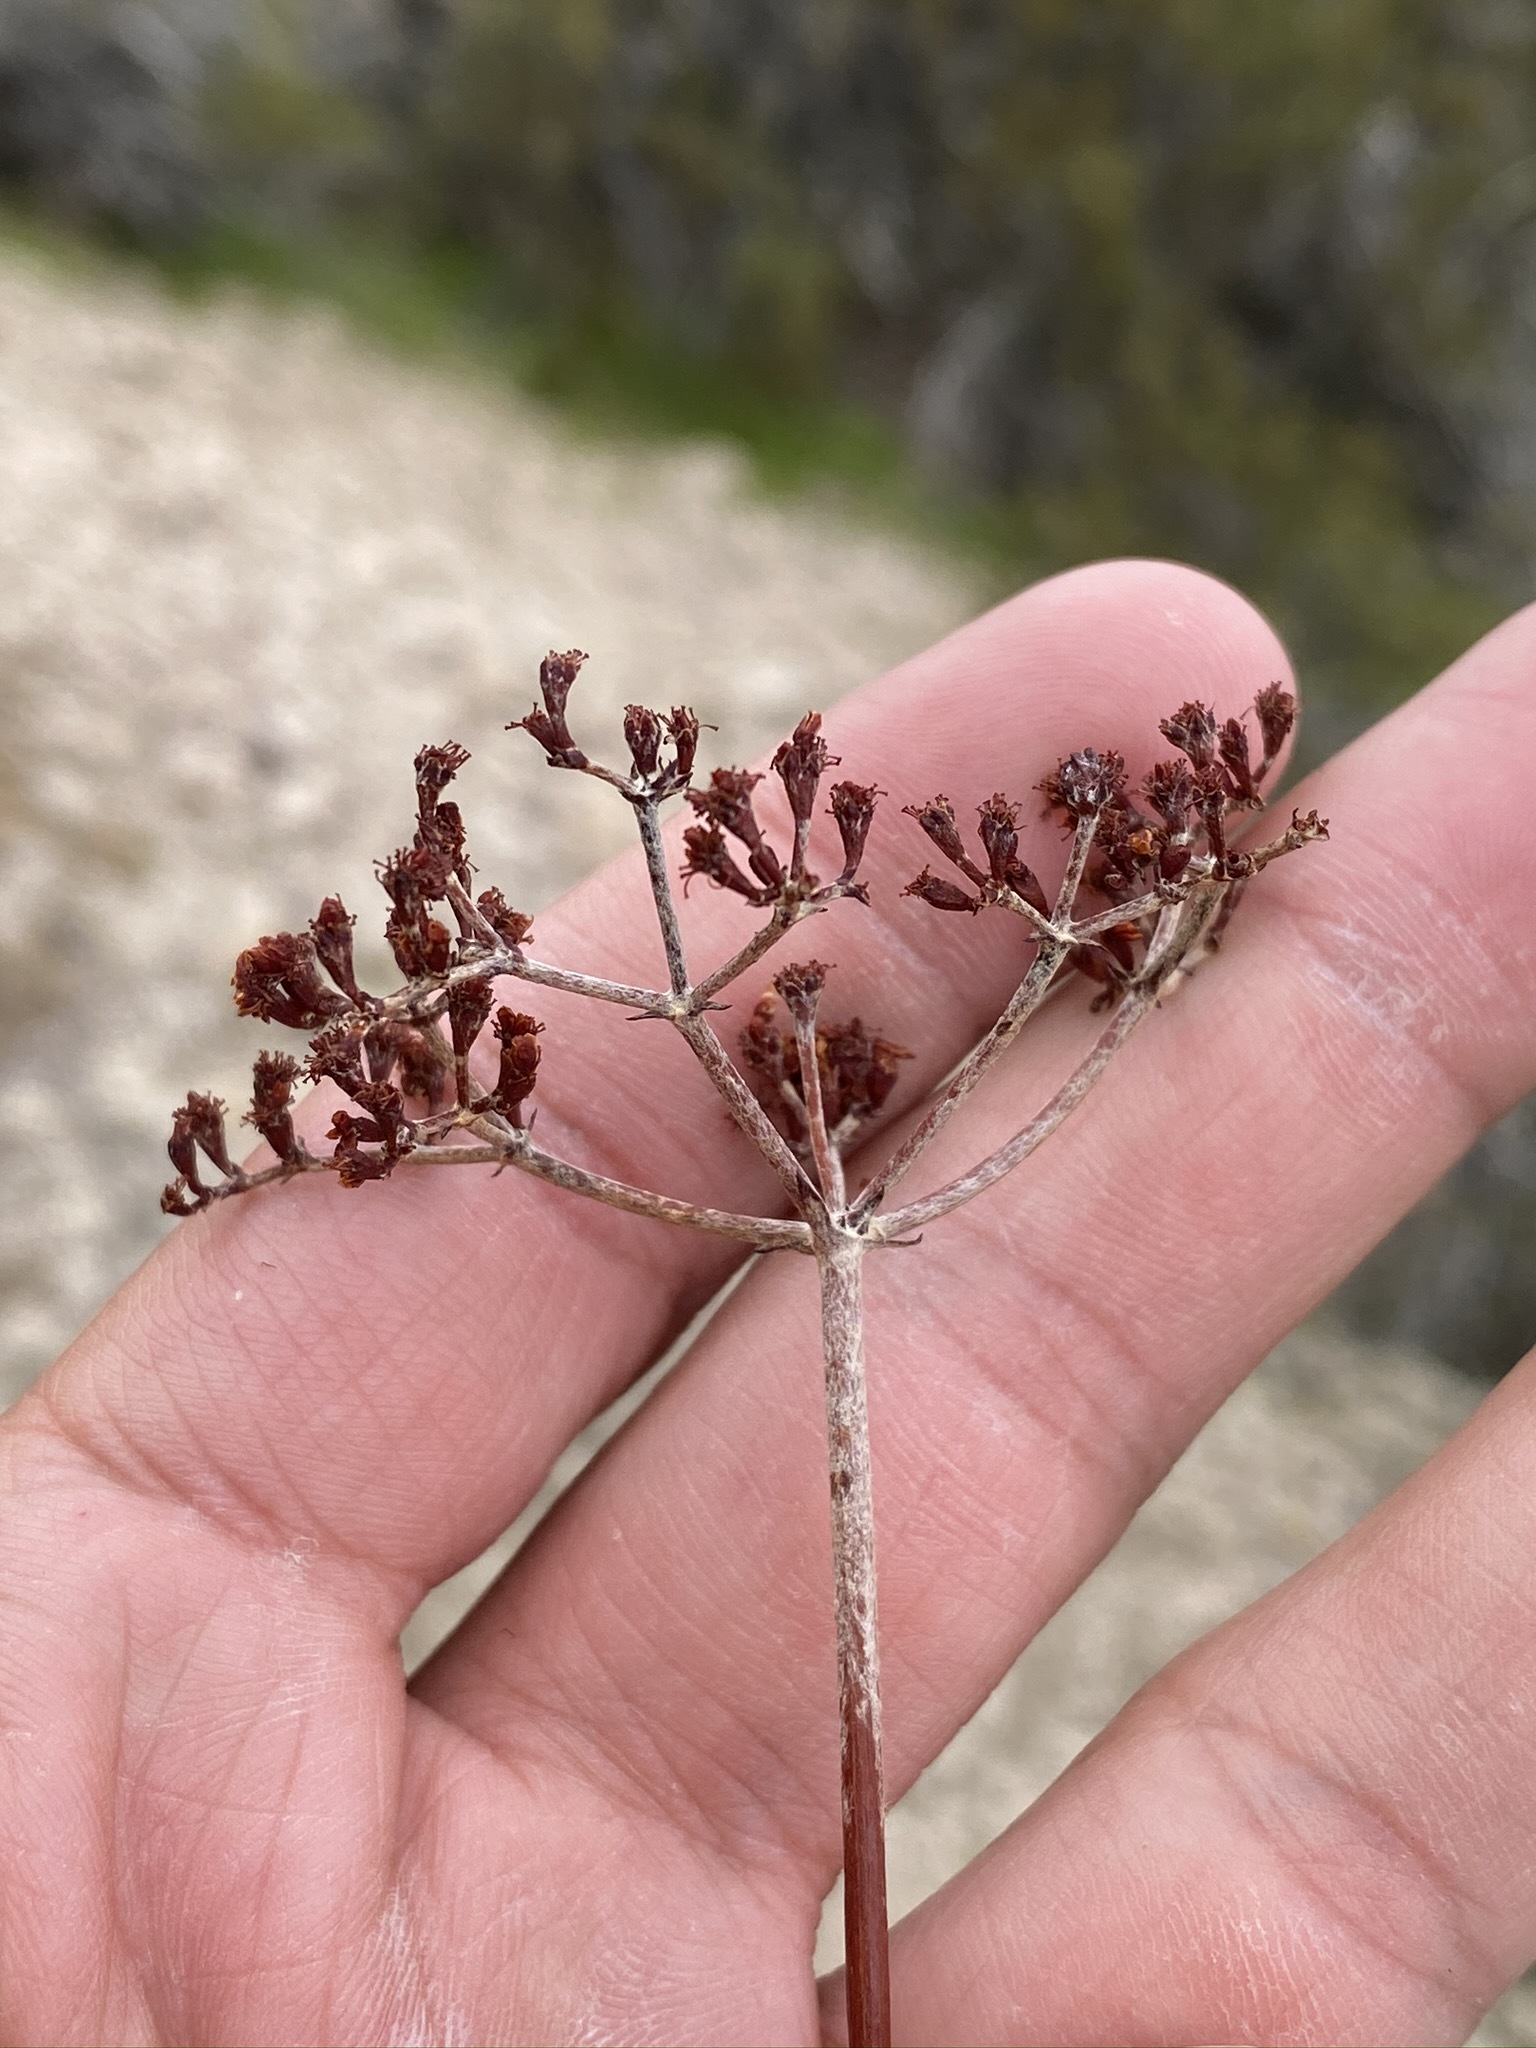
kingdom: Plantae
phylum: Tracheophyta
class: Magnoliopsida
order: Caryophyllales
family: Polygonaceae
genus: Eriogonum
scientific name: Eriogonum microtheca
